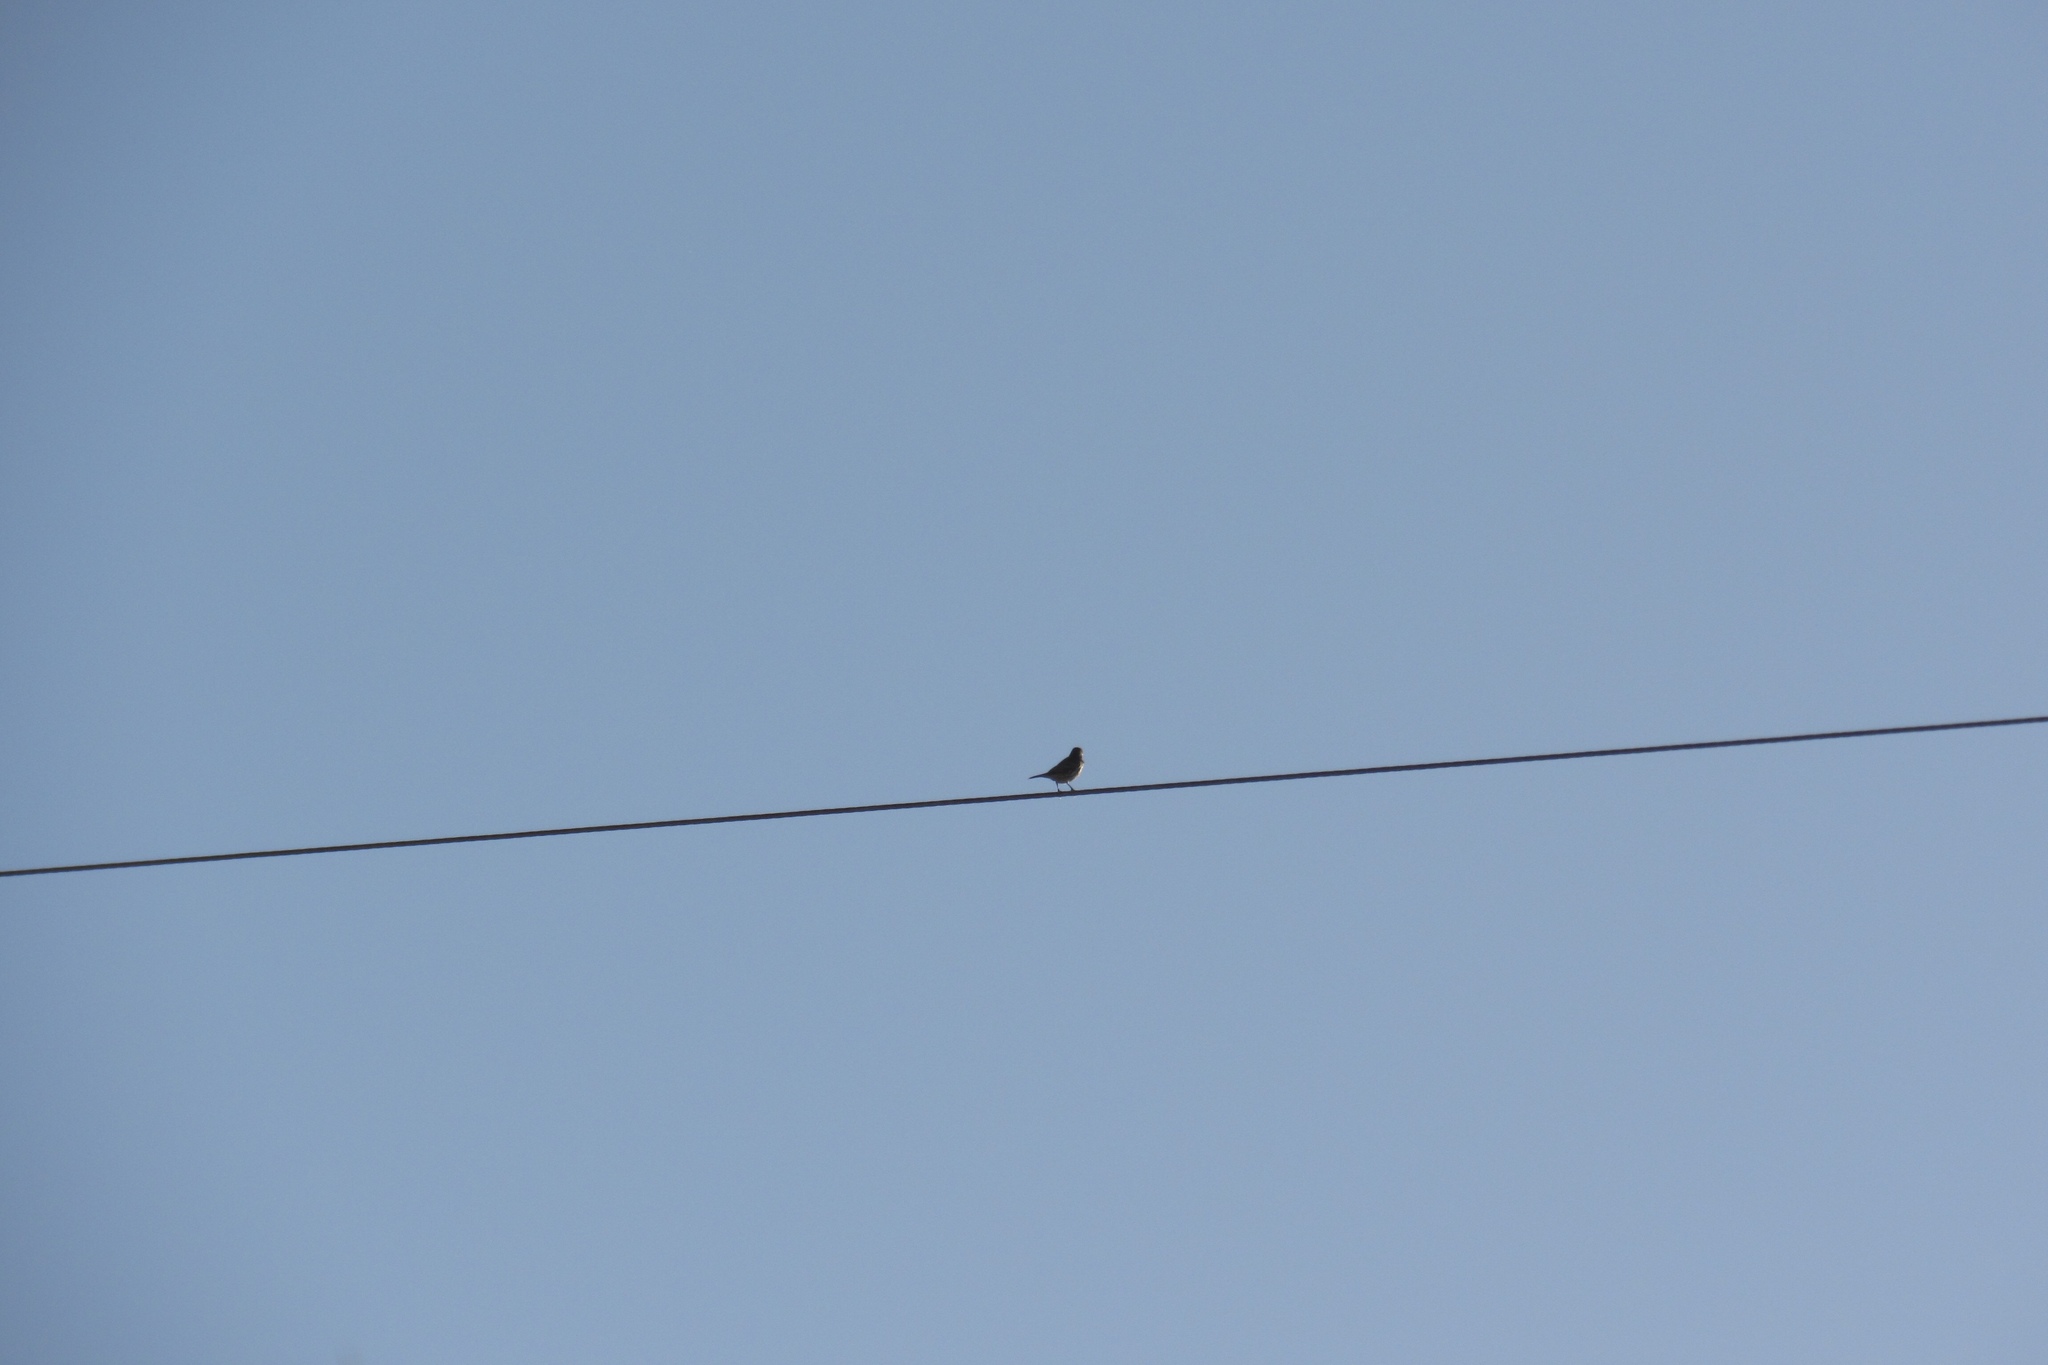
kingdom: Animalia
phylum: Chordata
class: Aves
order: Passeriformes
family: Fringillidae
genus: Haemorhous
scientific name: Haemorhous mexicanus
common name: House finch
